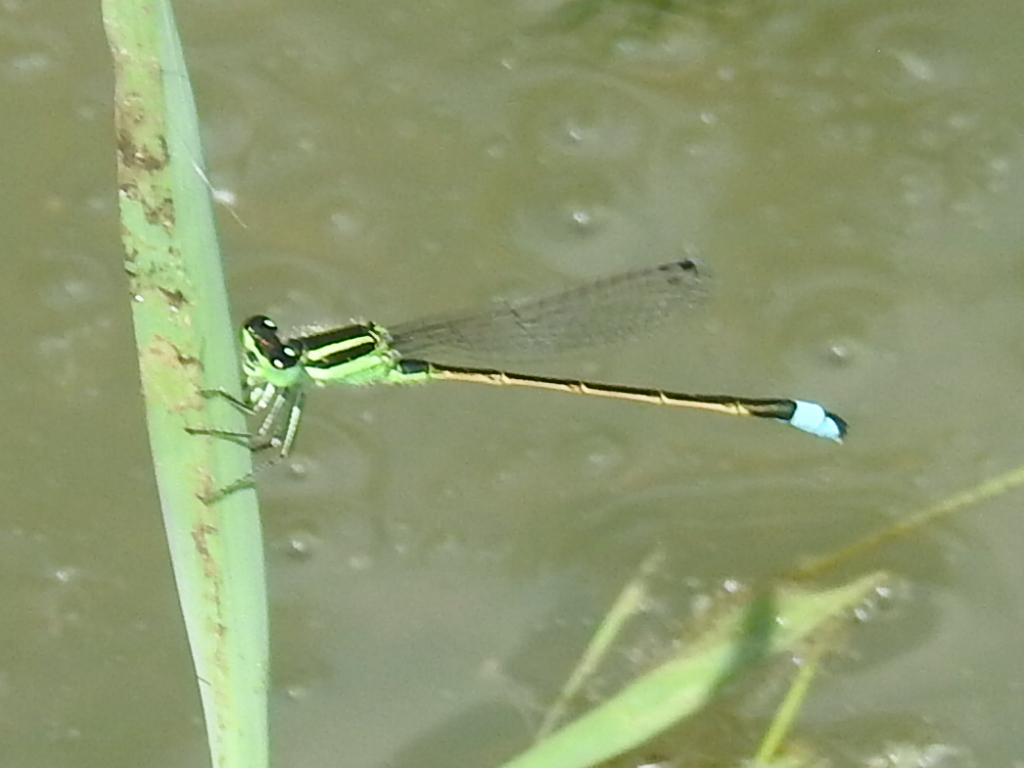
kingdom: Animalia
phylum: Arthropoda
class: Insecta
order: Odonata
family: Coenagrionidae
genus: Ischnura
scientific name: Ischnura ramburii
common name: Rambur's forktail
